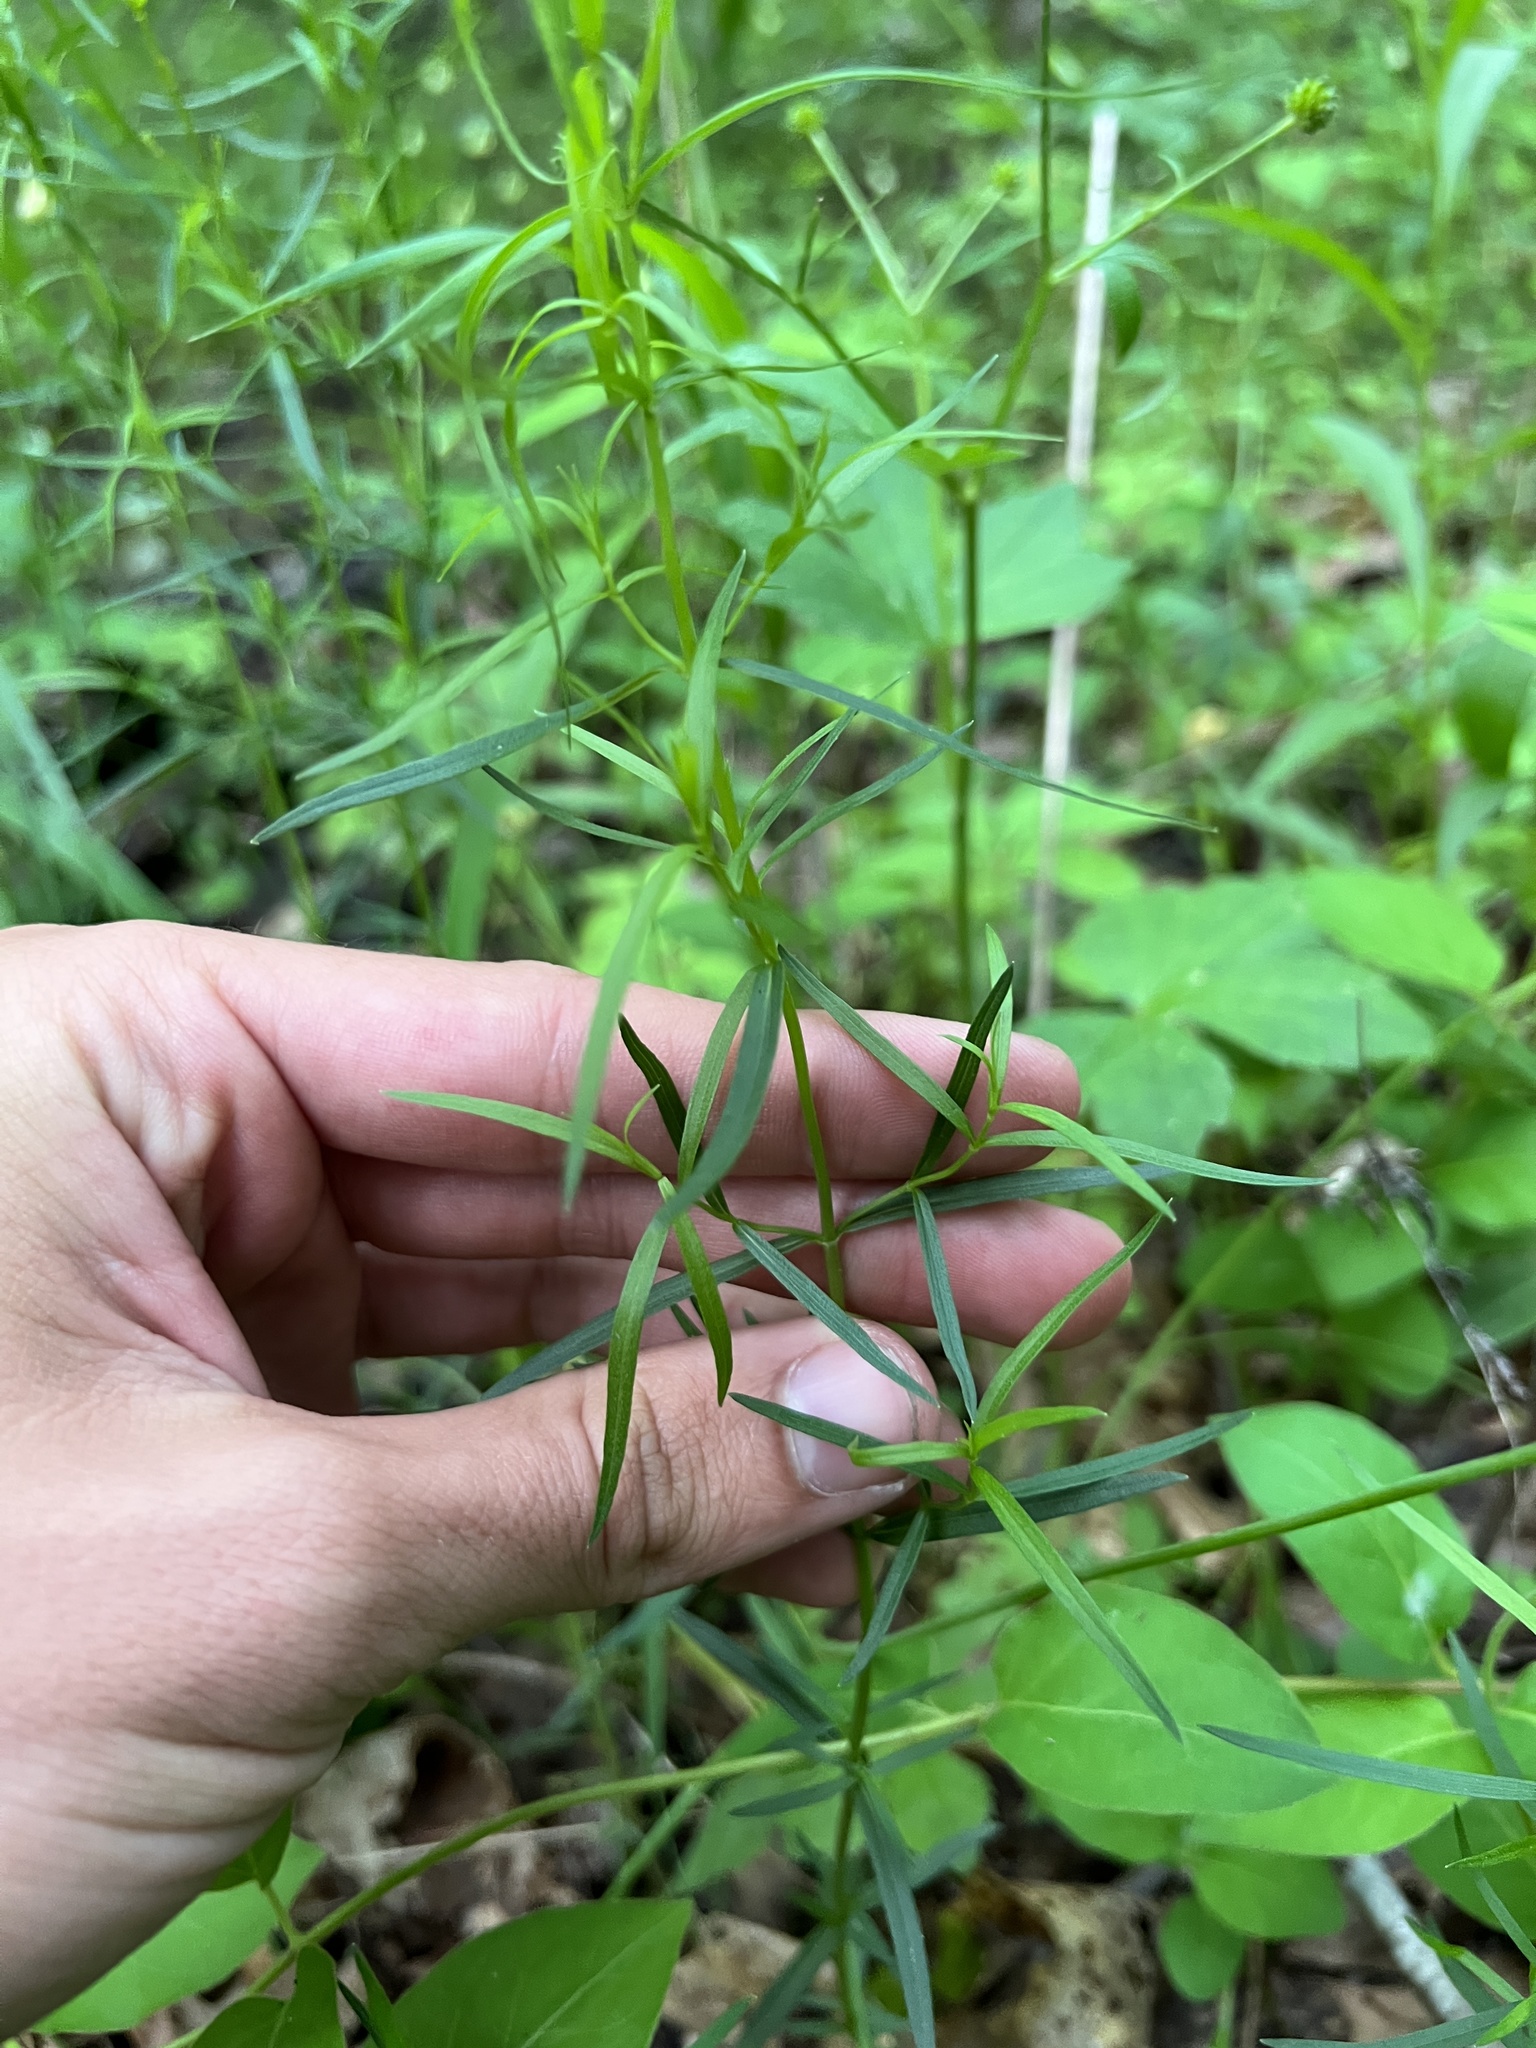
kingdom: Plantae
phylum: Tracheophyta
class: Magnoliopsida
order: Lamiales
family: Lamiaceae
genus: Pycnanthemum
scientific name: Pycnanthemum tenuifolium
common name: Narrow-leaf mountain-mint
